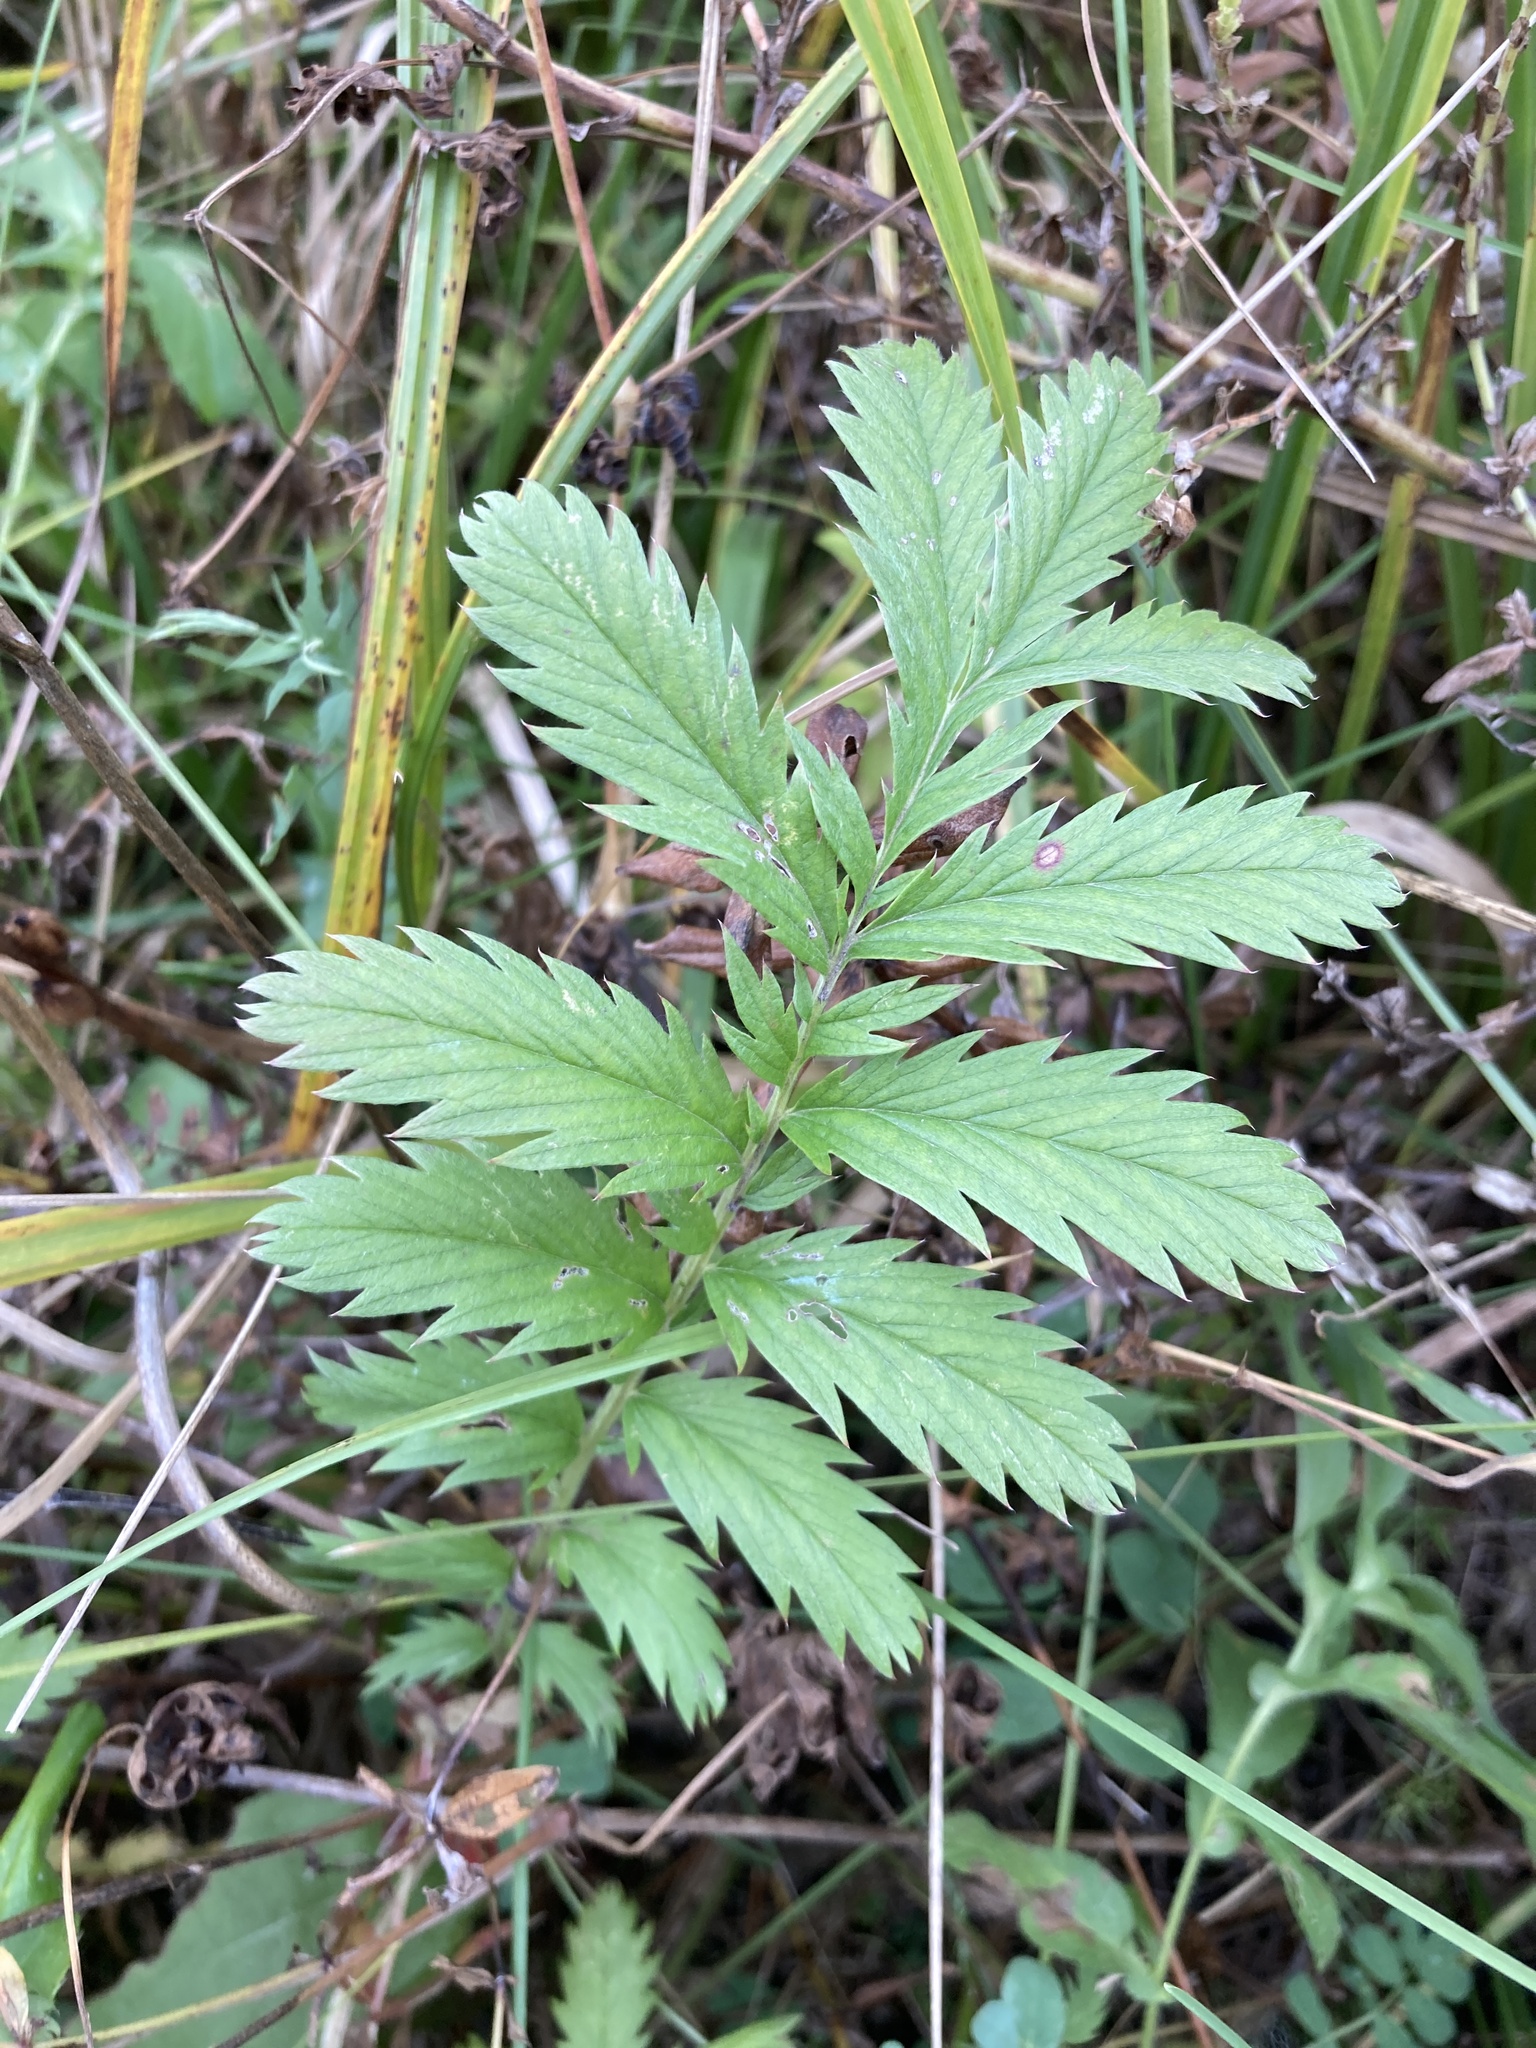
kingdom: Plantae
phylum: Tracheophyta
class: Magnoliopsida
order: Rosales
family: Rosaceae
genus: Argentina
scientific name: Argentina anserina
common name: Common silverweed
